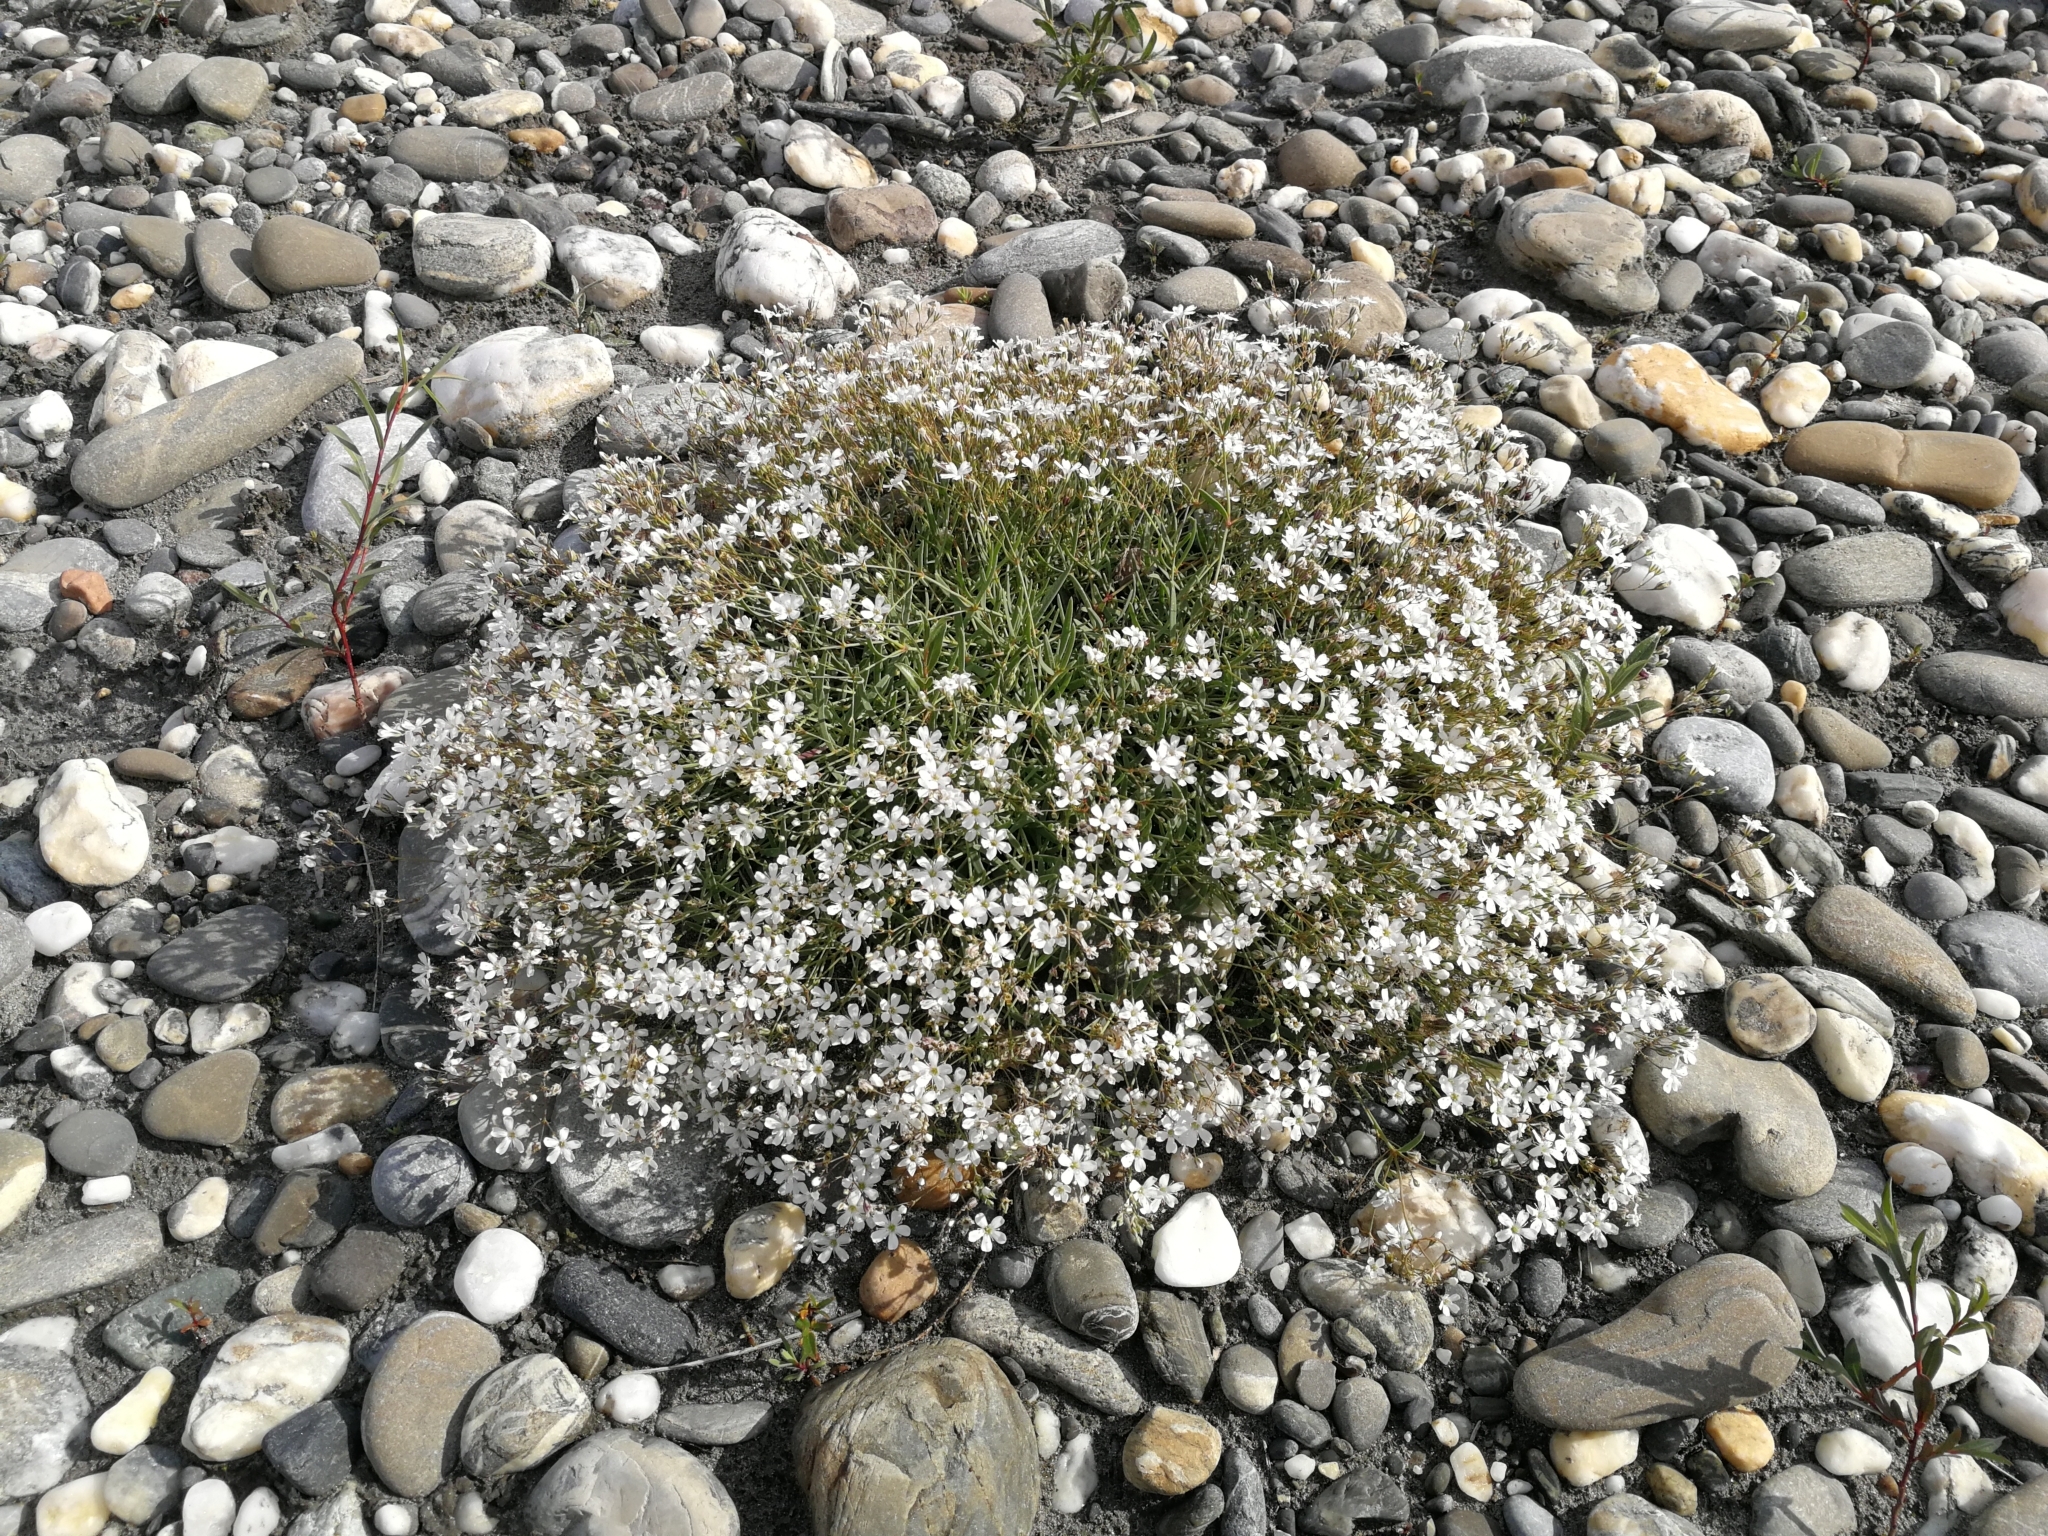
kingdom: Plantae
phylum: Tracheophyta
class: Magnoliopsida
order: Caryophyllales
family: Caryophyllaceae
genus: Gypsophila
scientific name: Gypsophila repens
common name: Creeping baby's-breath
